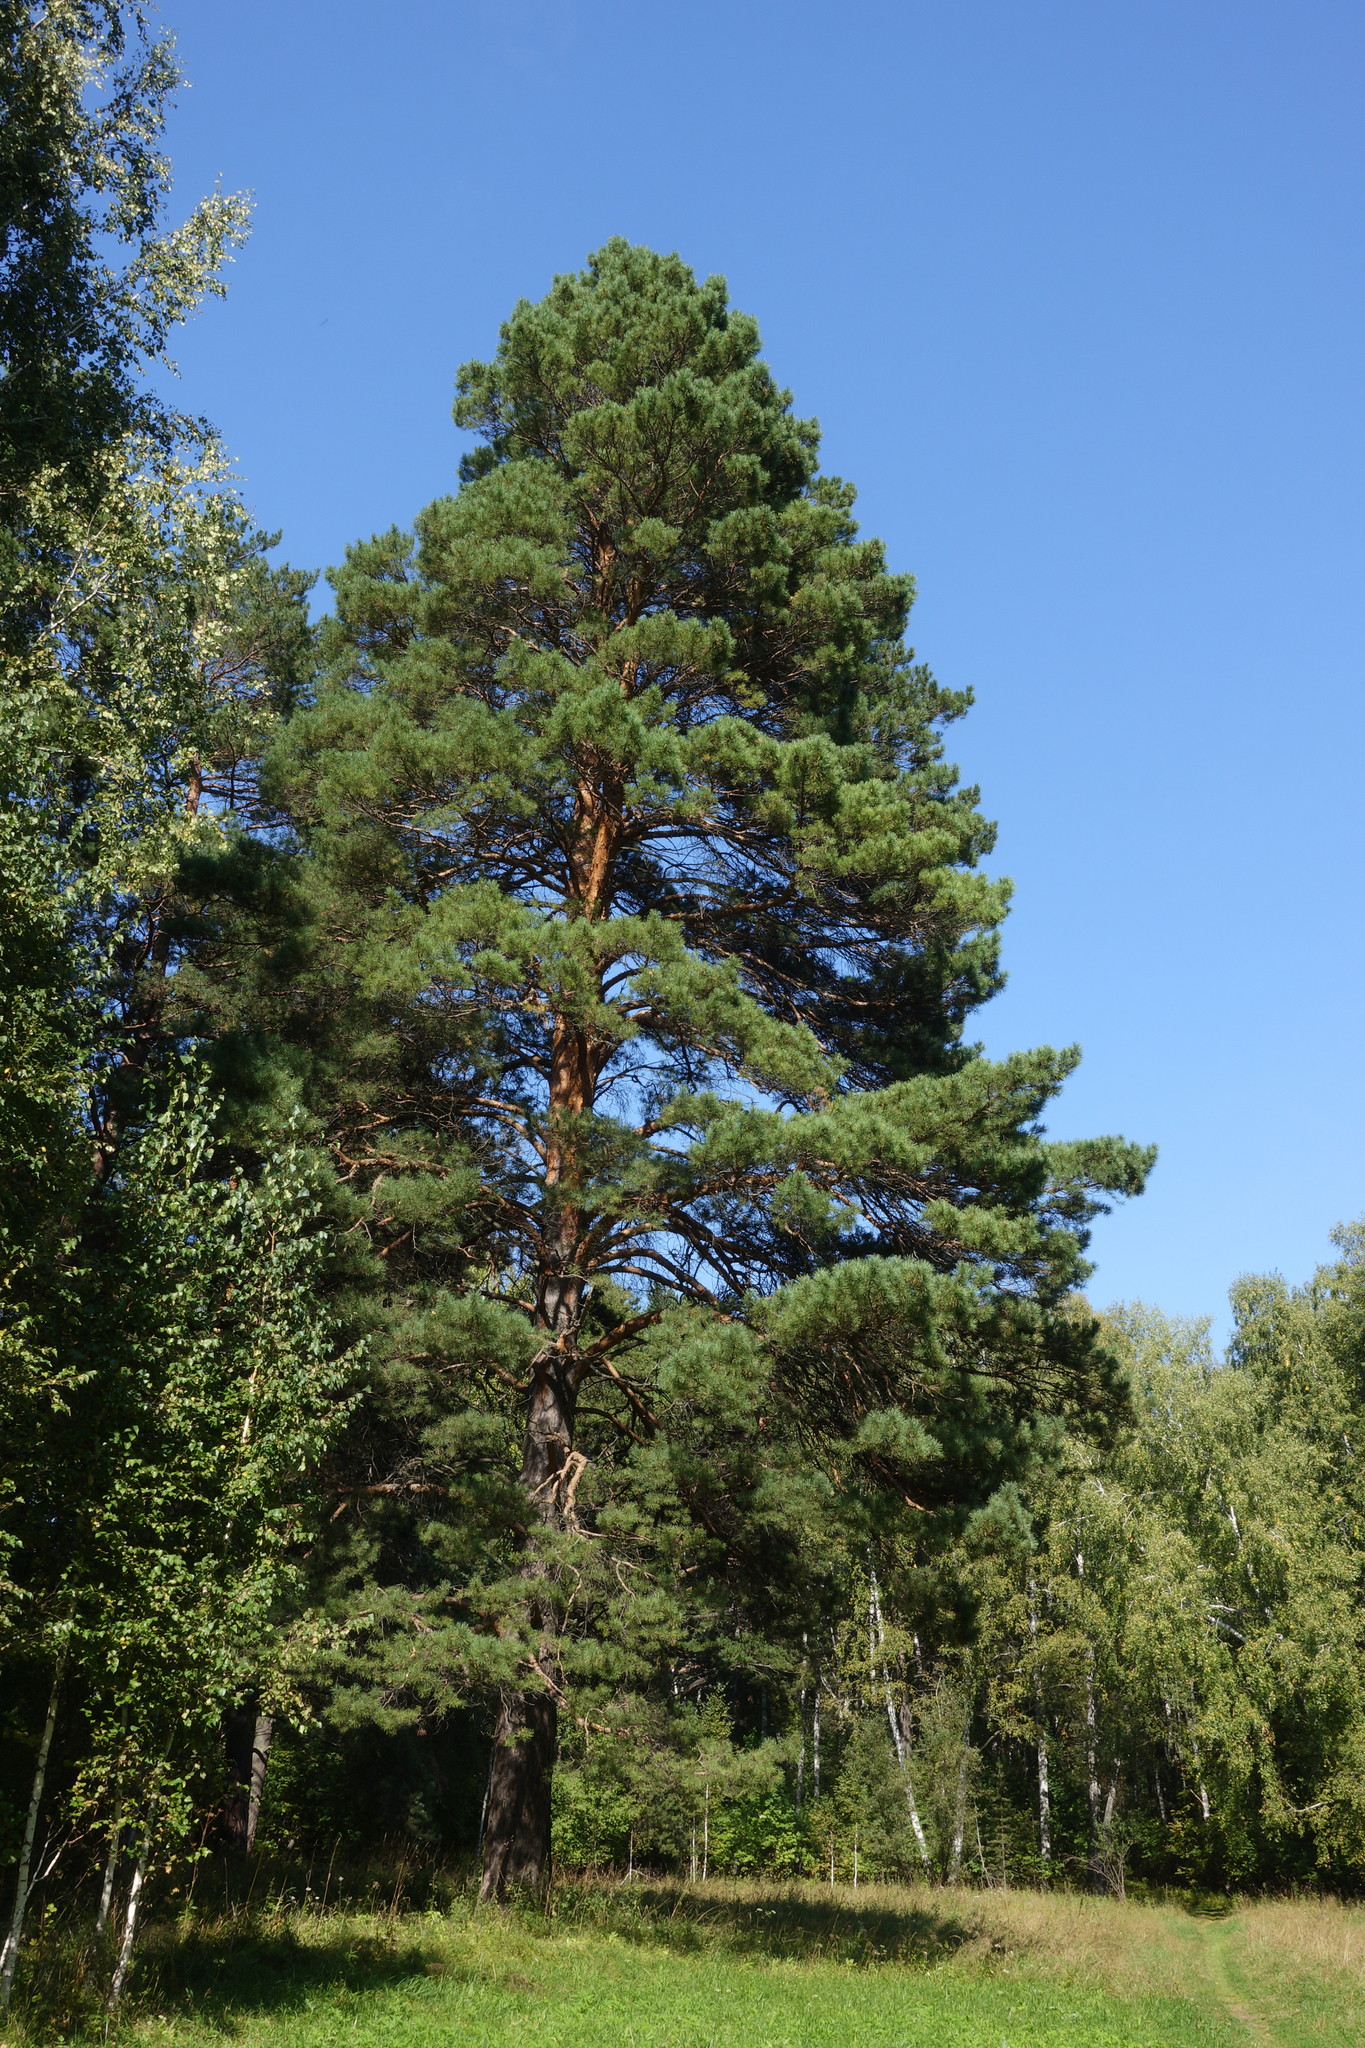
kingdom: Plantae
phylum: Tracheophyta
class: Pinopsida
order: Pinales
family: Pinaceae
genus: Pinus
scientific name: Pinus sylvestris
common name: Scots pine
